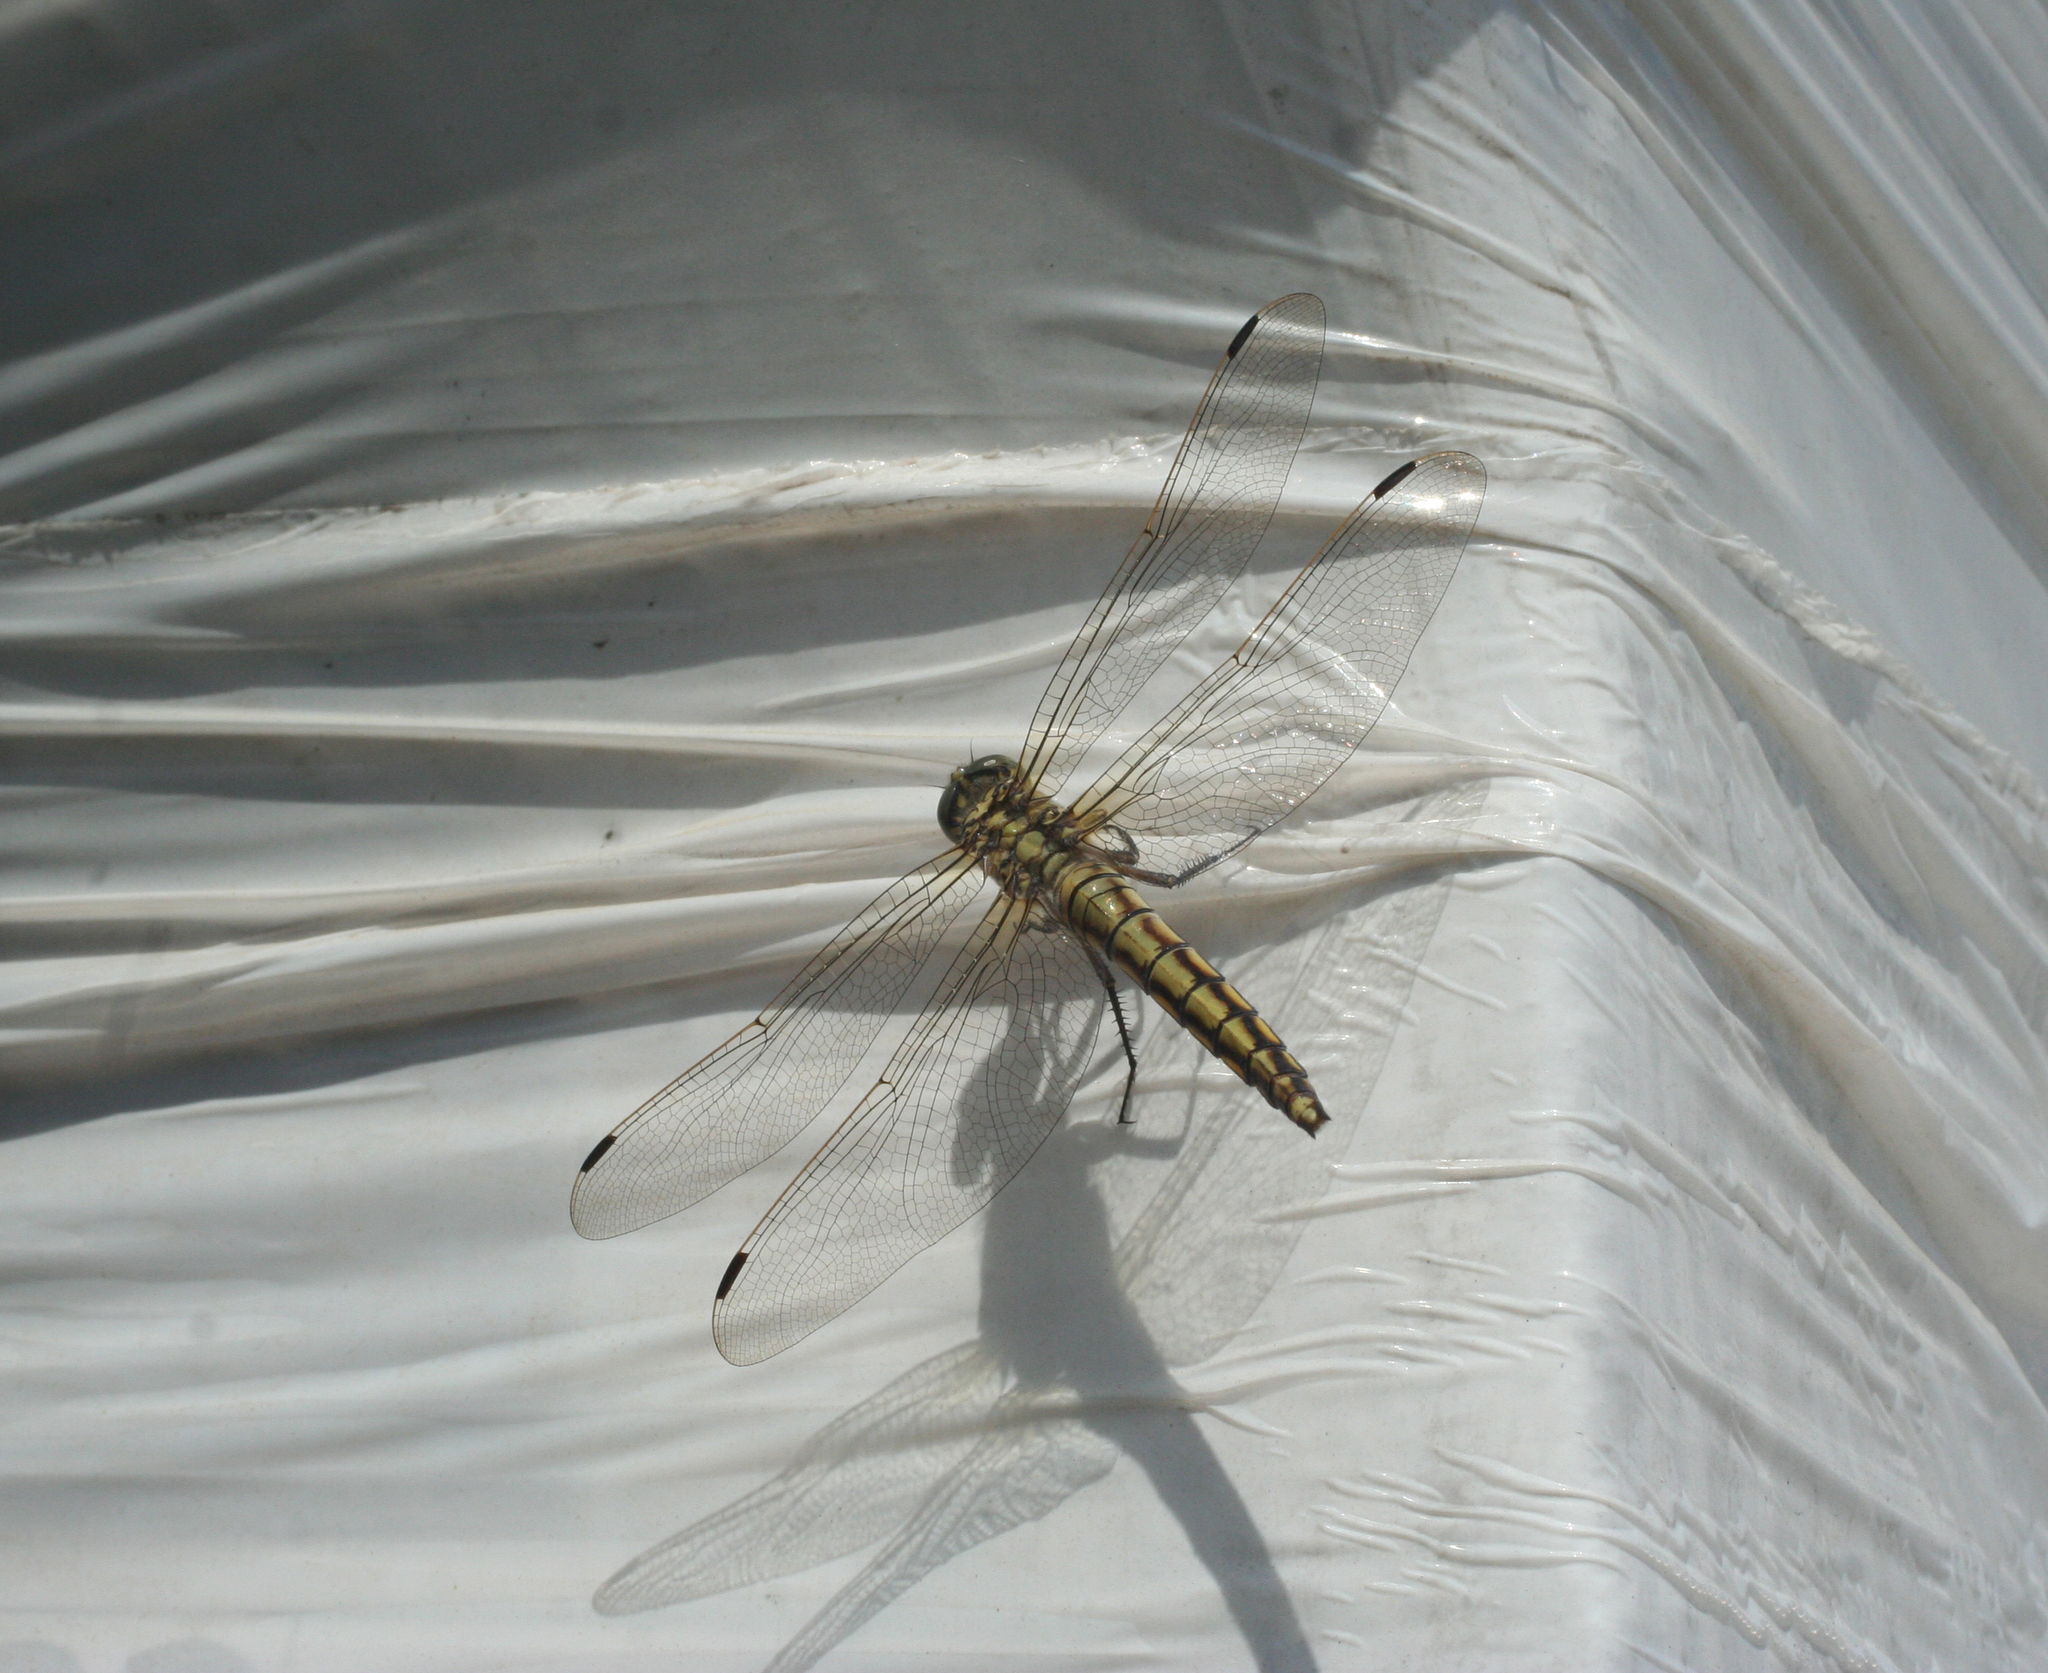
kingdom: Animalia
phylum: Arthropoda
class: Insecta
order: Odonata
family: Libellulidae
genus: Orthetrum
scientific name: Orthetrum cancellatum
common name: Black-tailed skimmer
